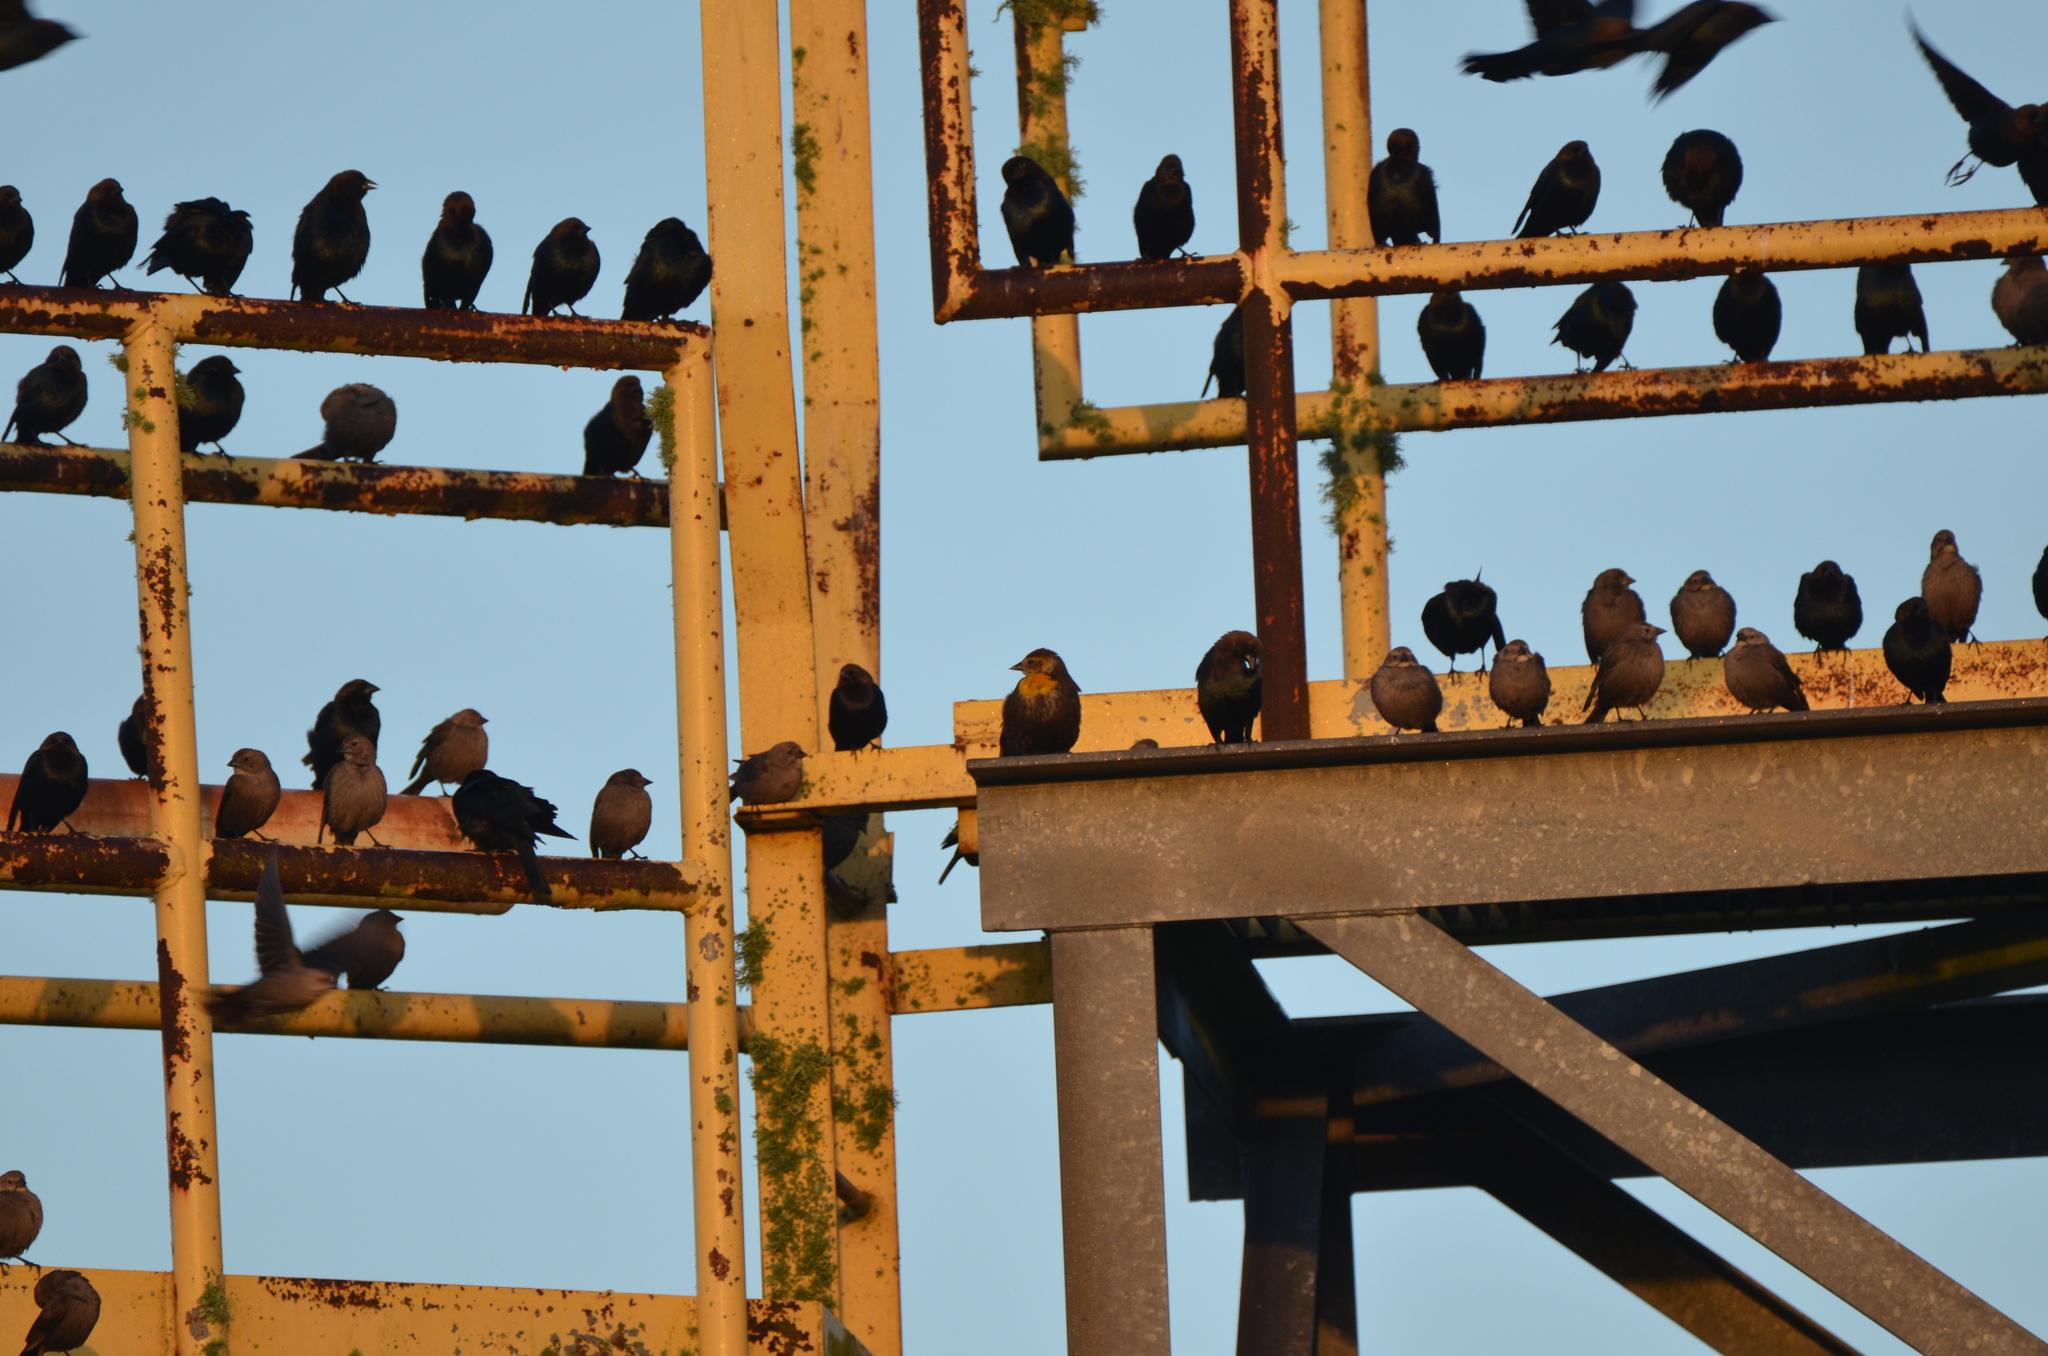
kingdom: Animalia
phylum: Chordata
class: Aves
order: Passeriformes
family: Icteridae
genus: Xanthocephalus
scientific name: Xanthocephalus xanthocephalus
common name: Yellow-headed blackbird
